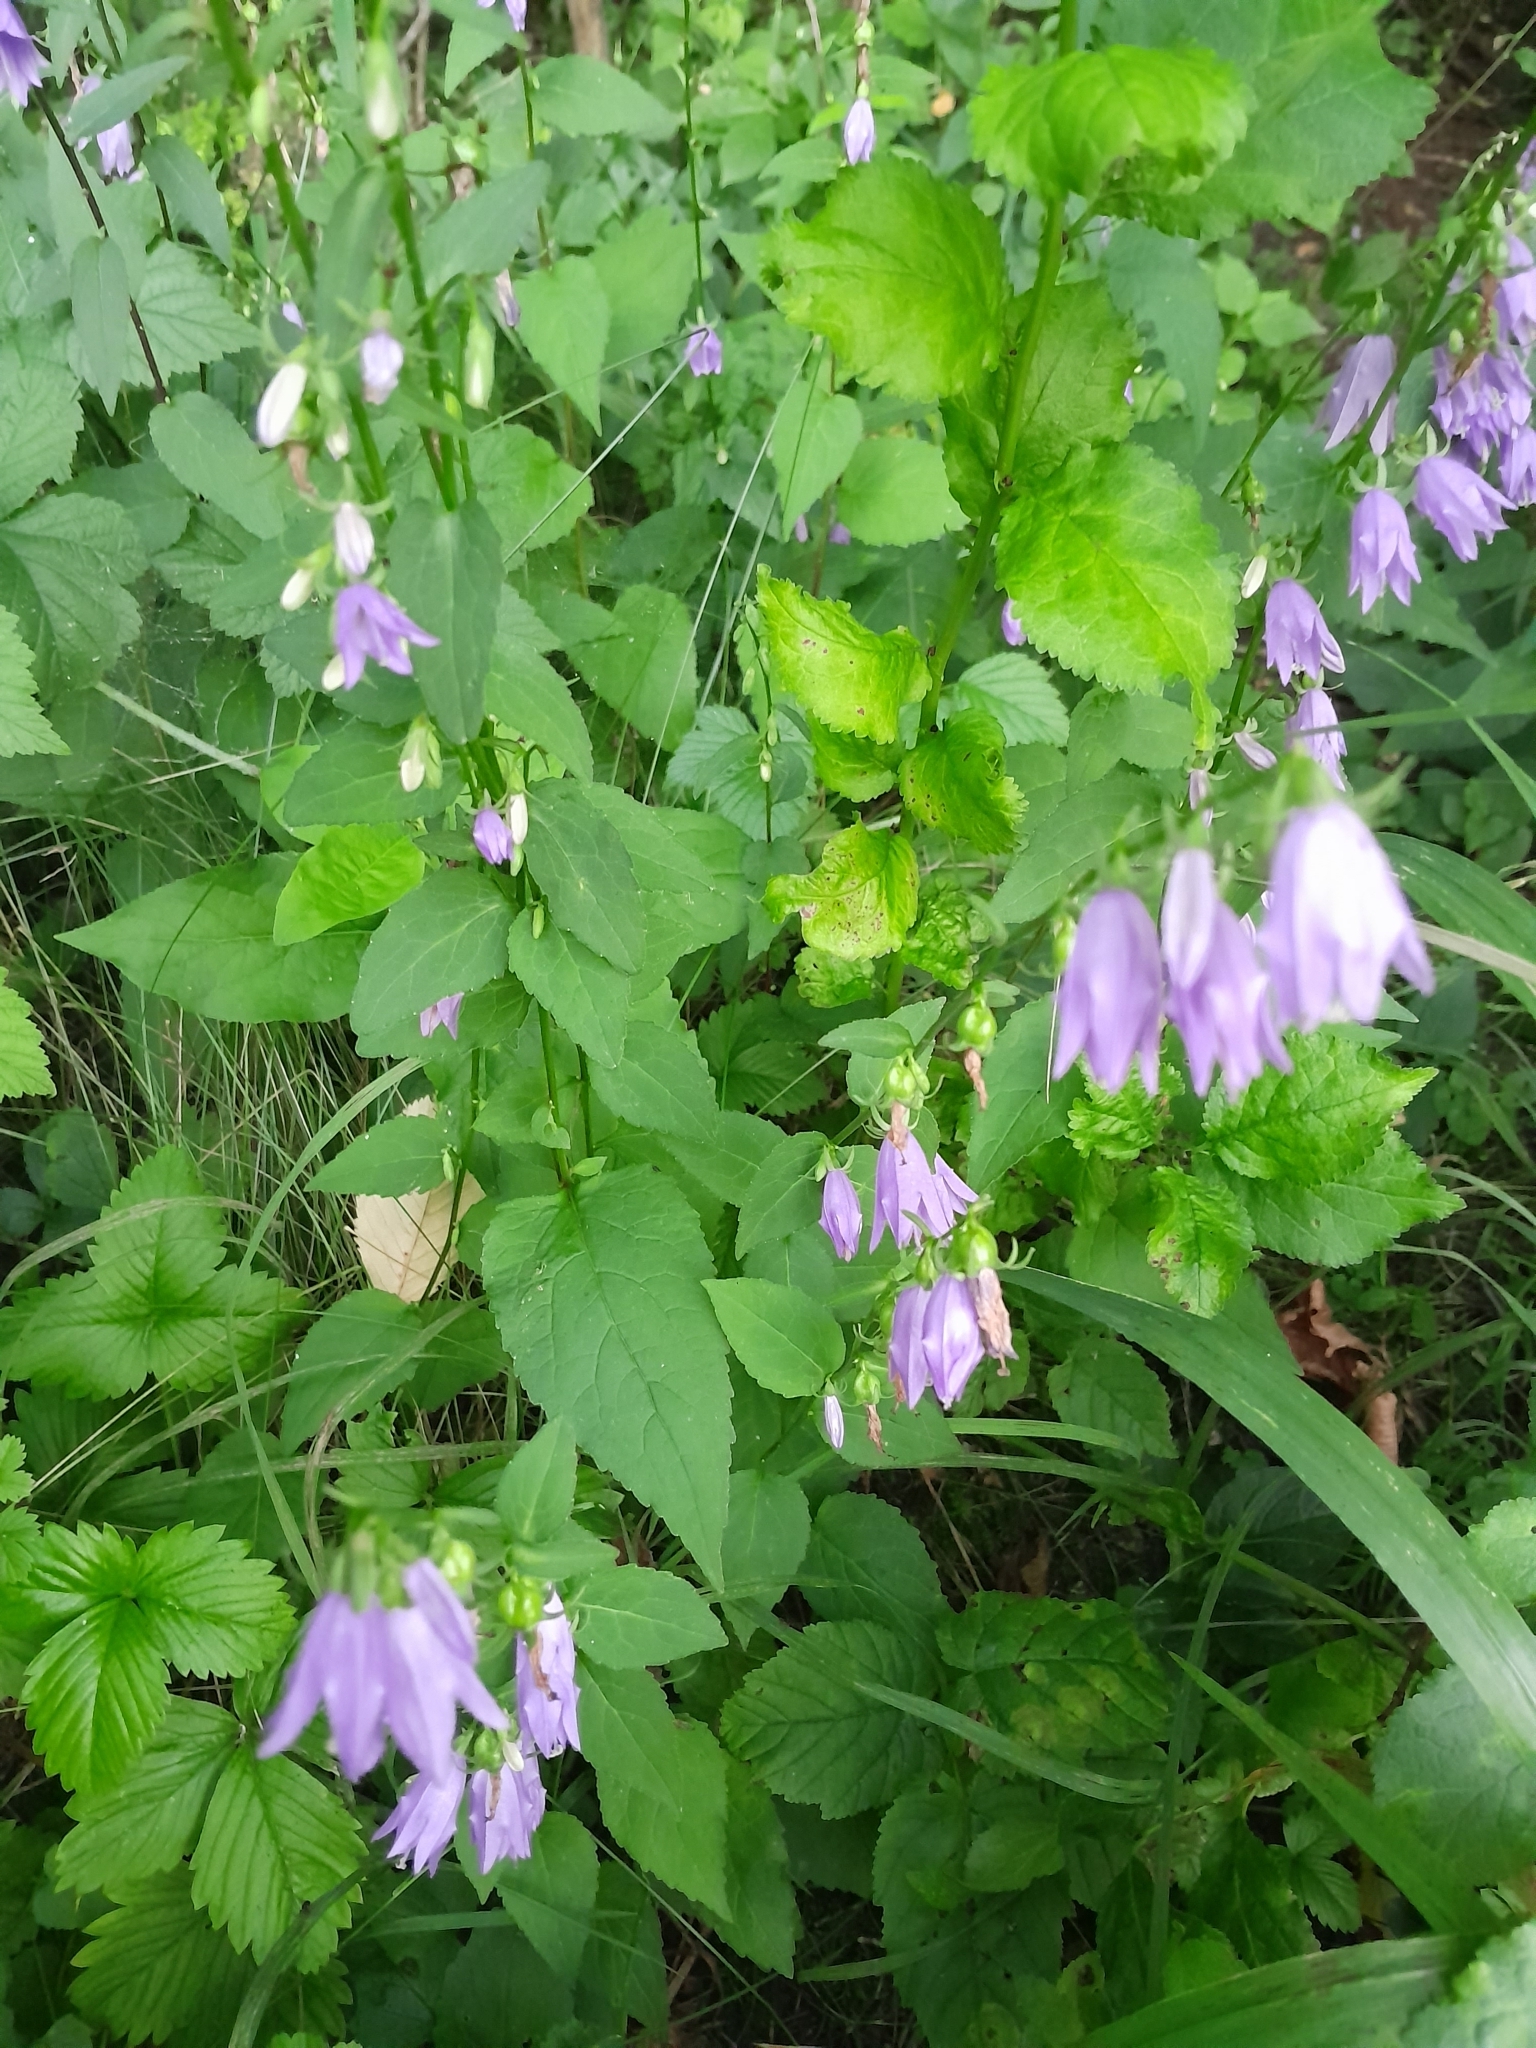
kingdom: Plantae
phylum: Tracheophyta
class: Magnoliopsida
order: Asterales
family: Campanulaceae
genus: Campanula
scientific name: Campanula rapunculoides
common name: Creeping bellflower
